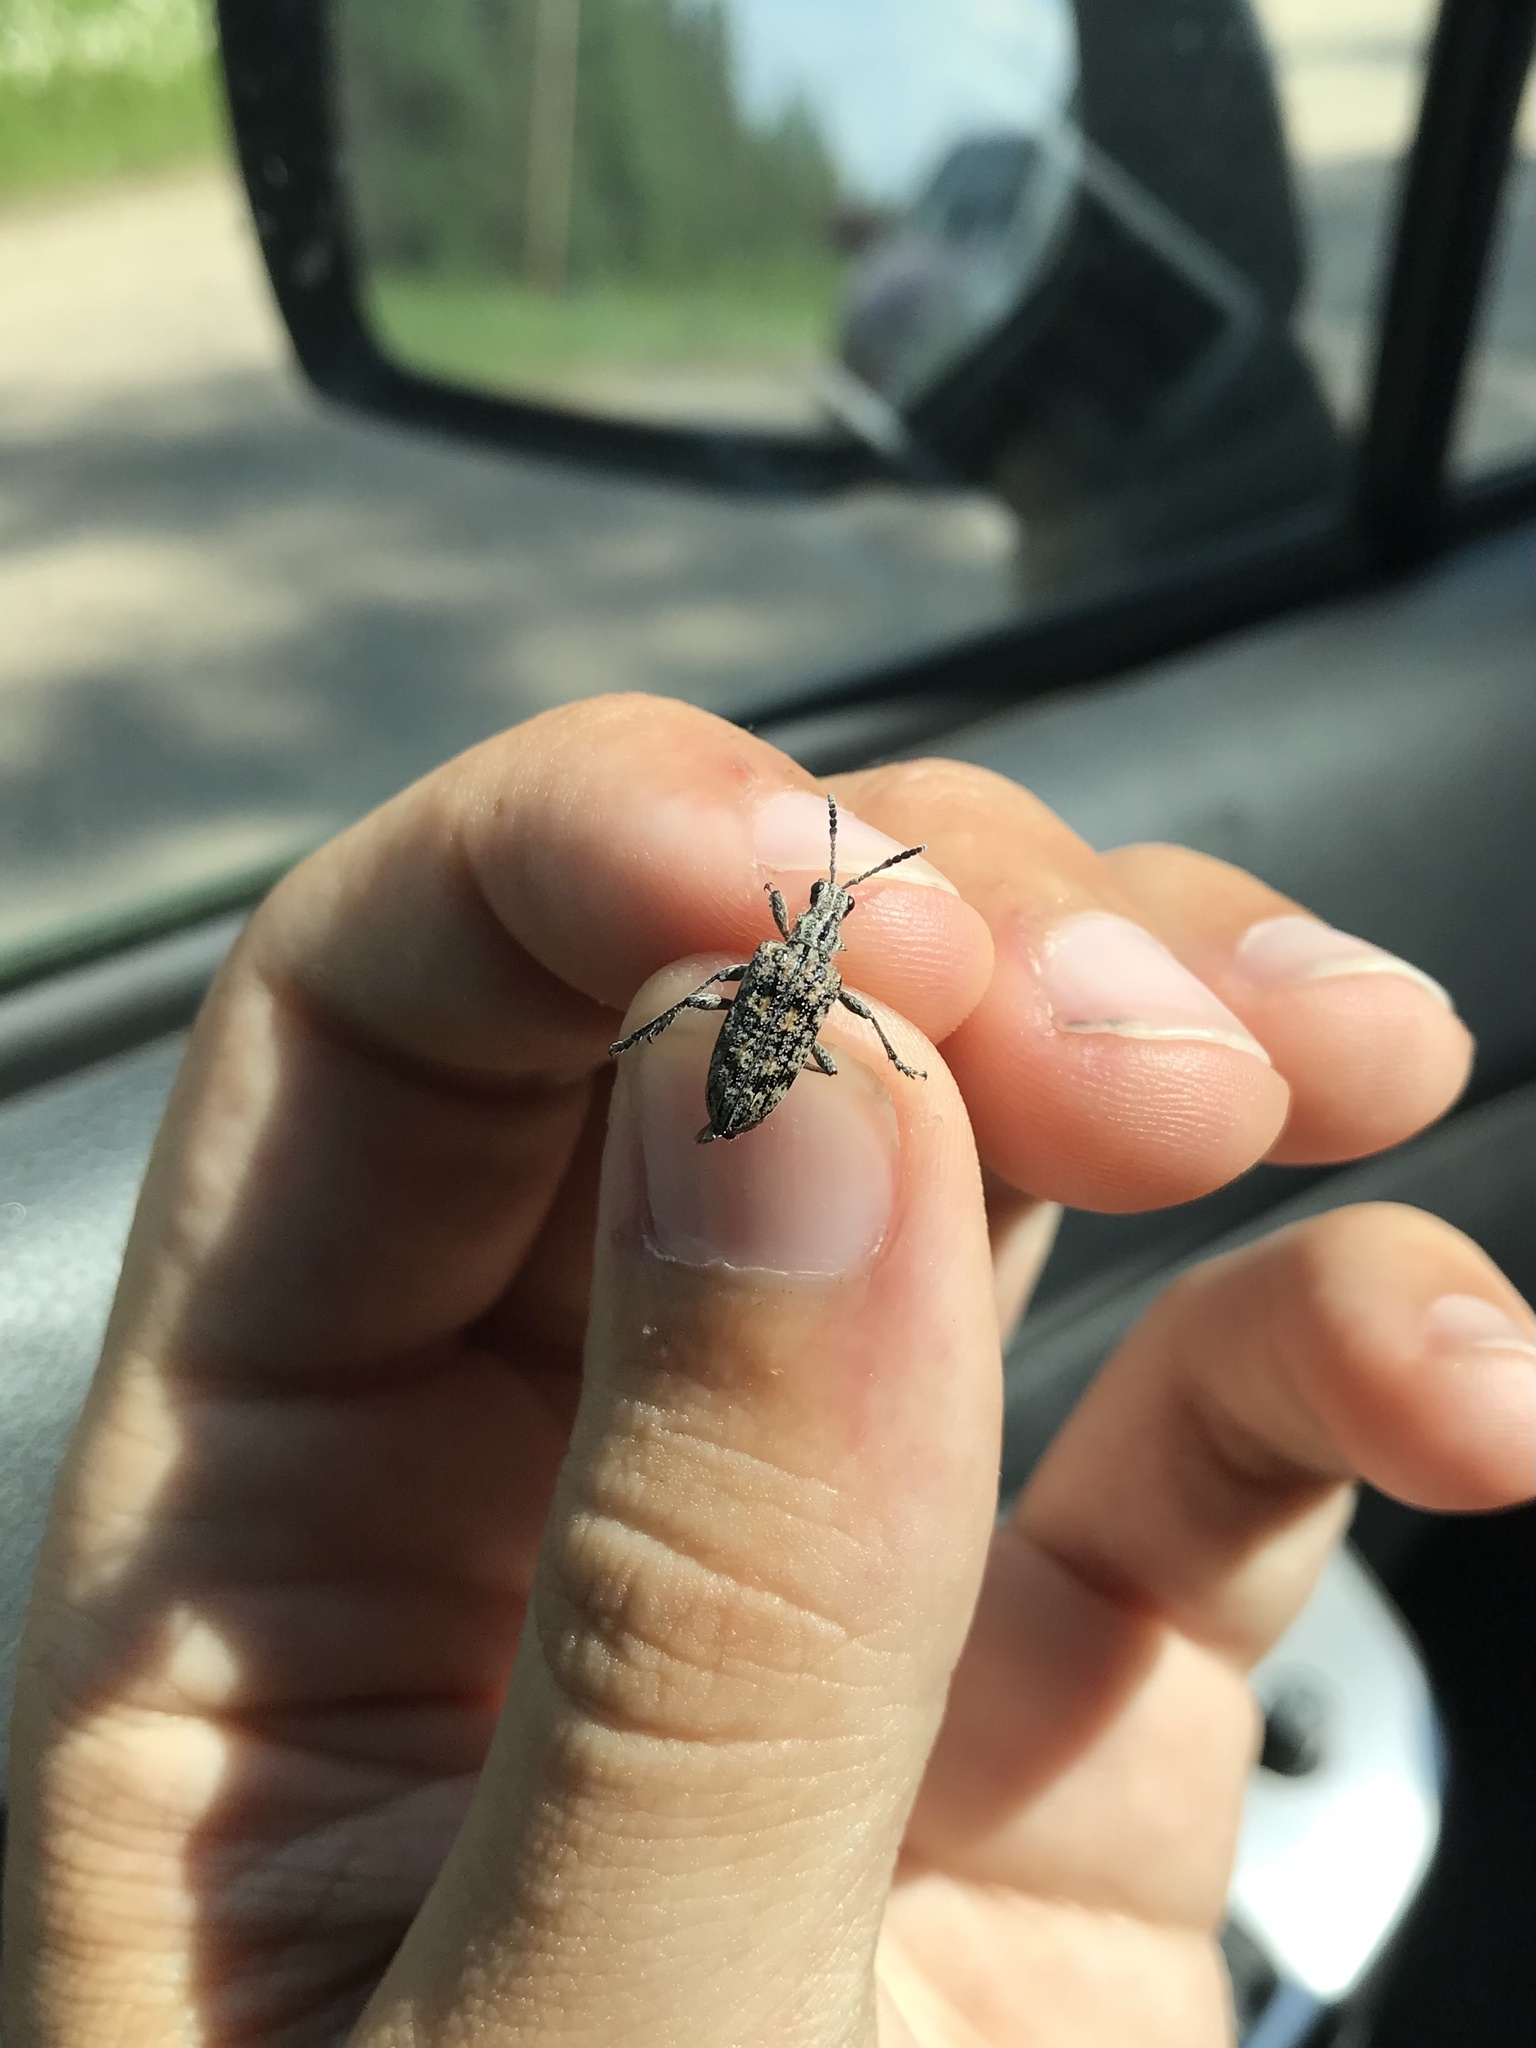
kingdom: Animalia
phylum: Arthropoda
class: Insecta
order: Coleoptera
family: Cerambycidae
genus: Rhagium
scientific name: Rhagium inquisitor
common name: Ribbed pine borer
